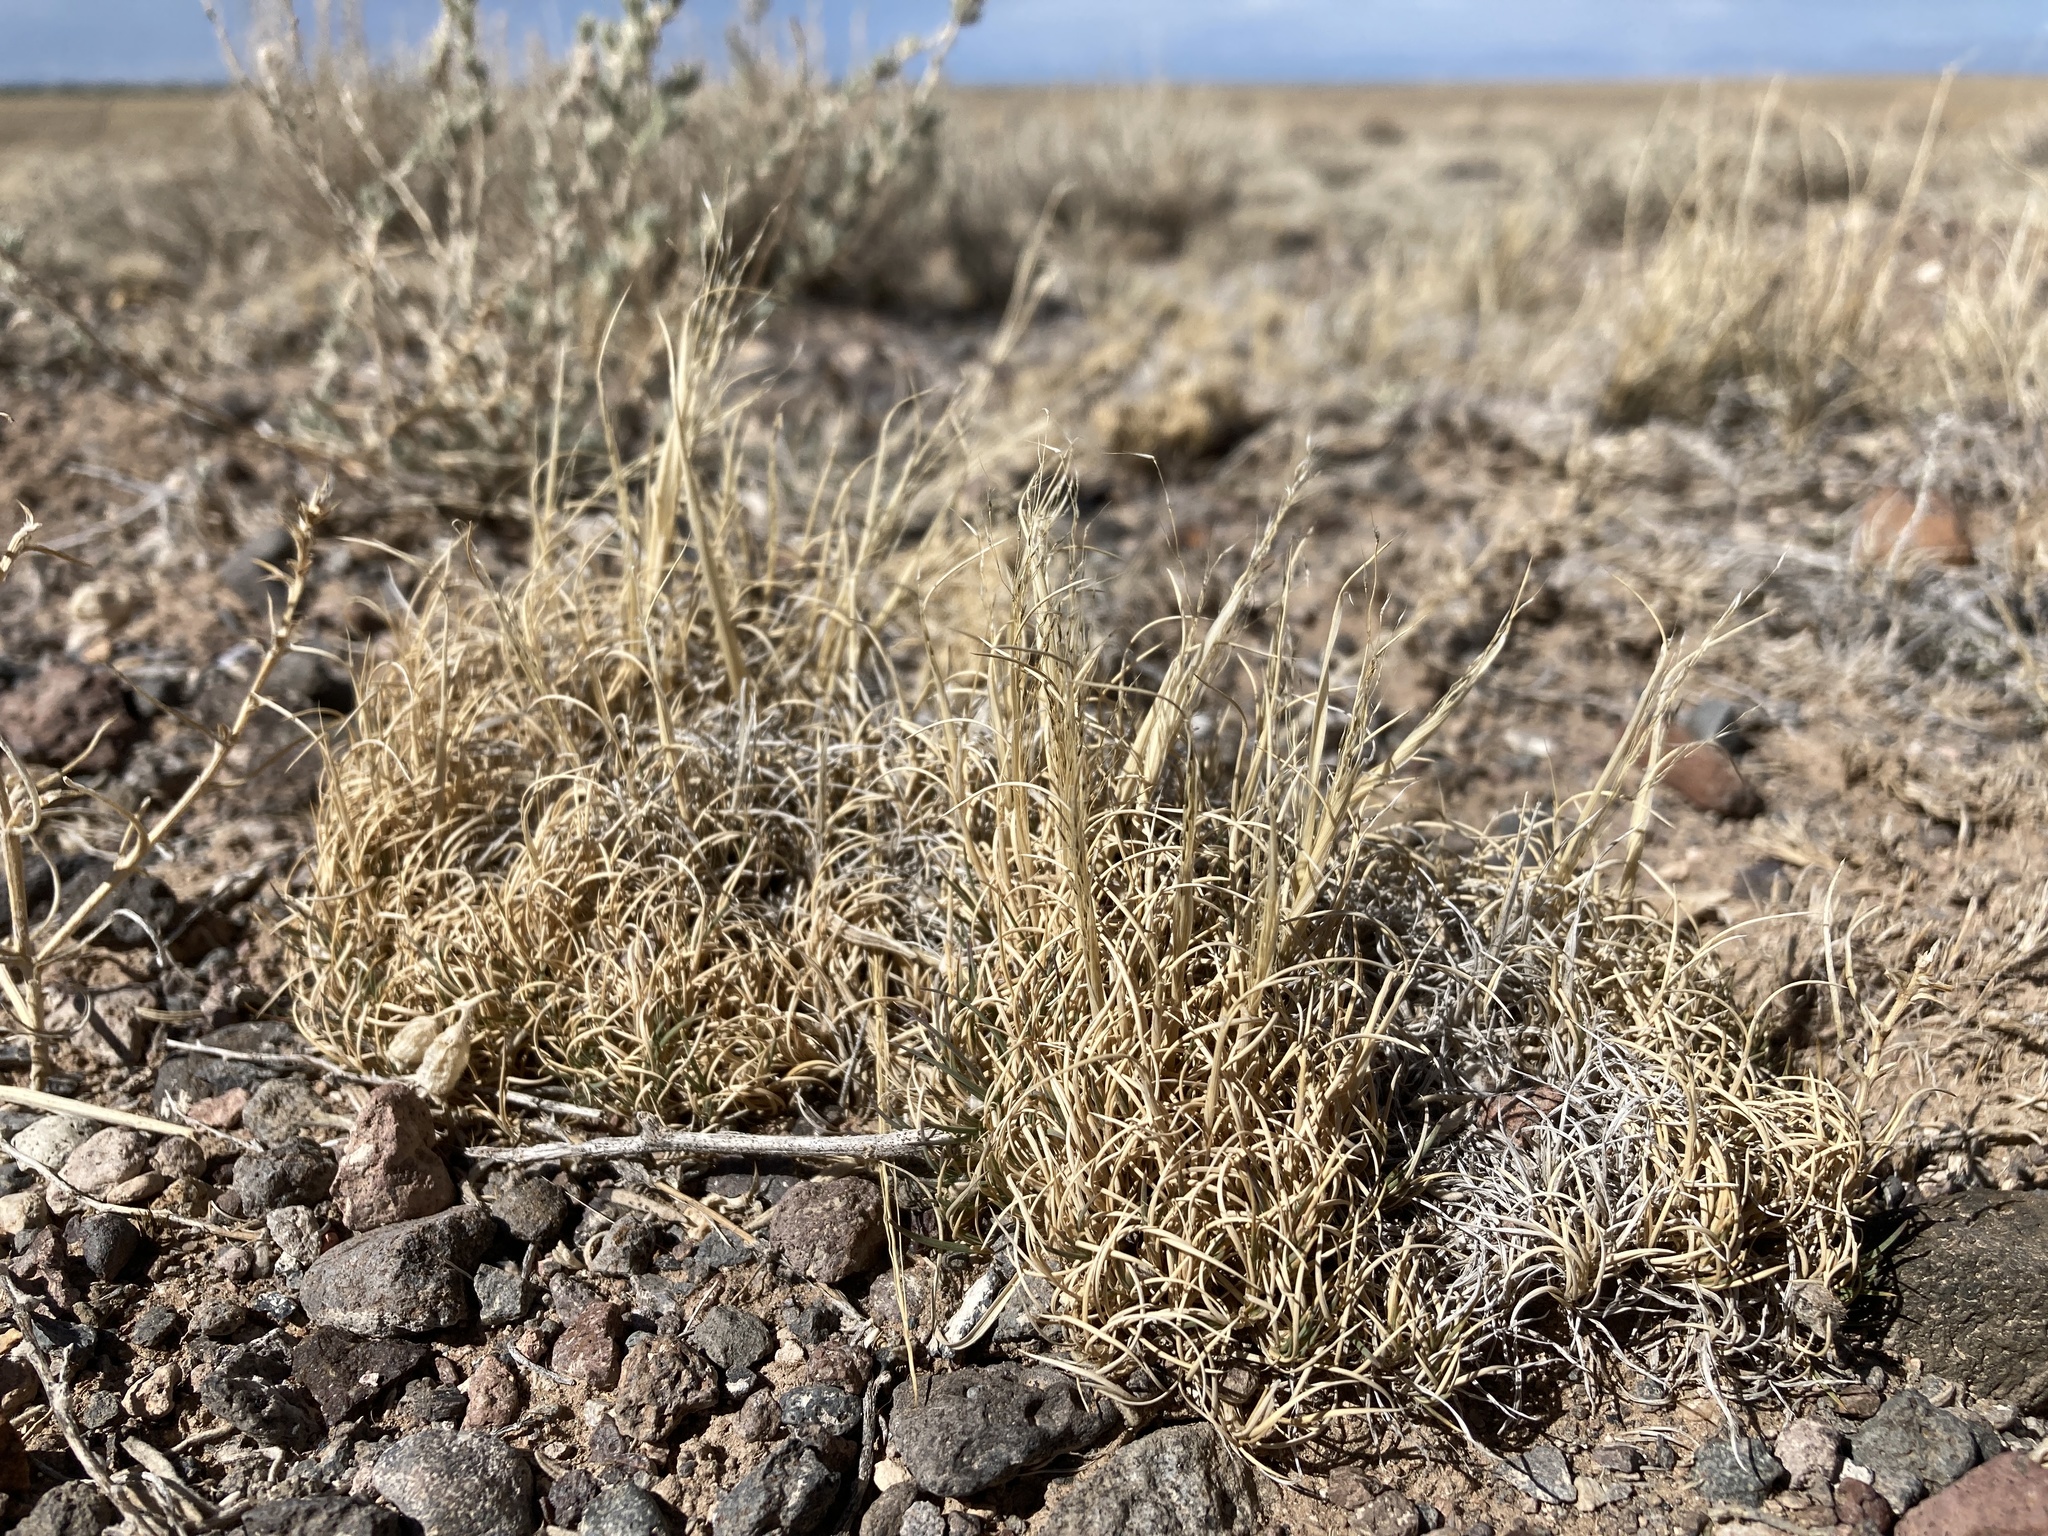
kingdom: Plantae
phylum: Tracheophyta
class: Liliopsida
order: Poales
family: Poaceae
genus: Muhlenbergia
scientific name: Muhlenbergia torreyi
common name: Ring grass
